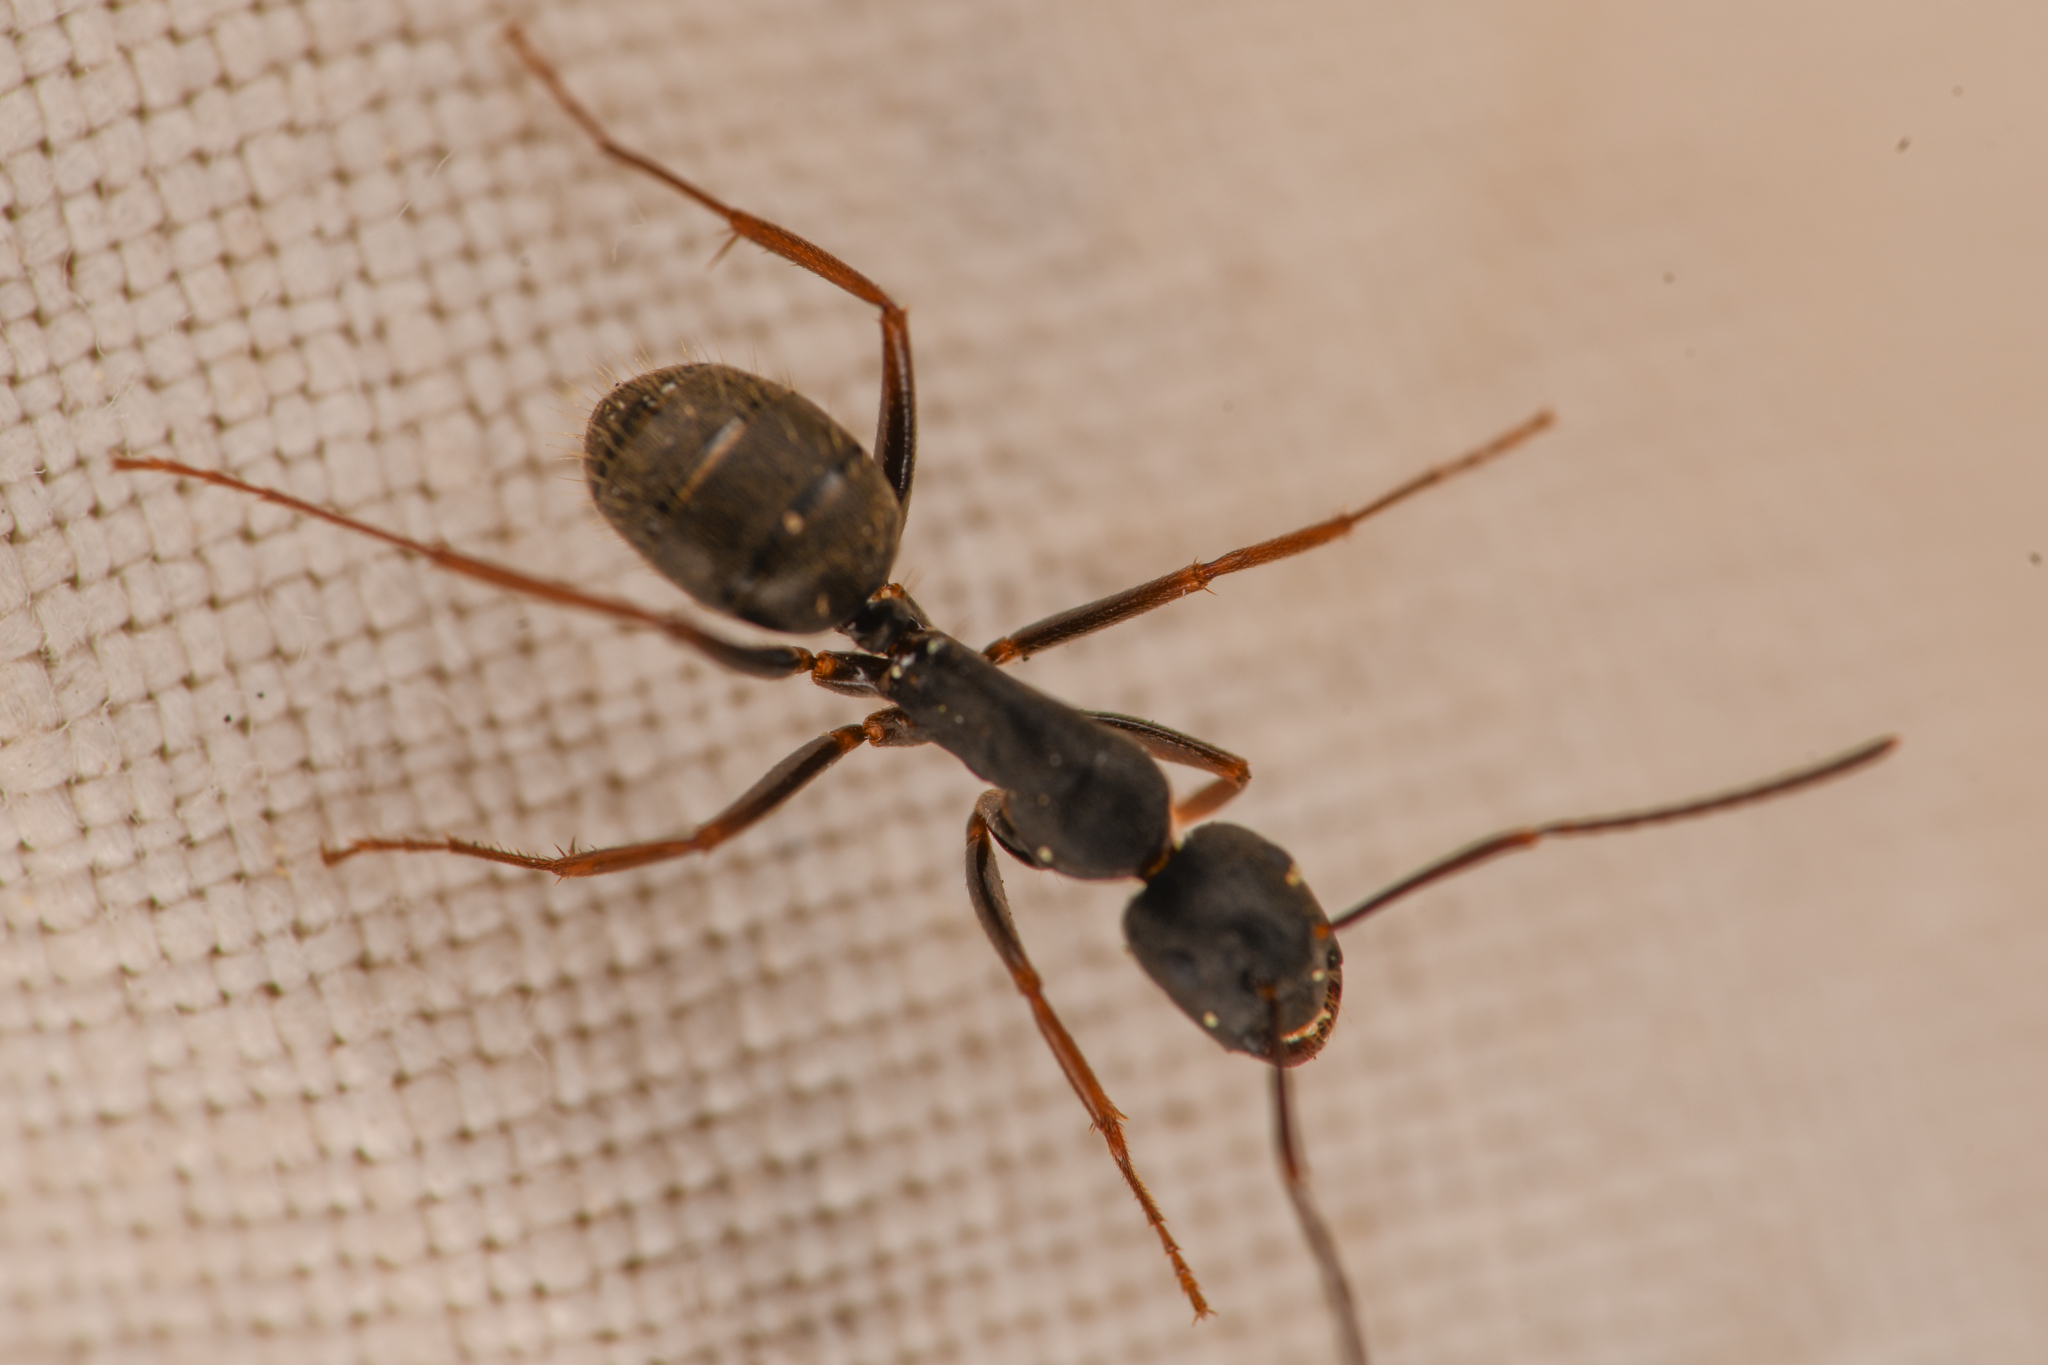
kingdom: Animalia
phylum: Arthropoda
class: Insecta
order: Hymenoptera
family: Formicidae
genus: Camponotus
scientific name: Camponotus modoc
